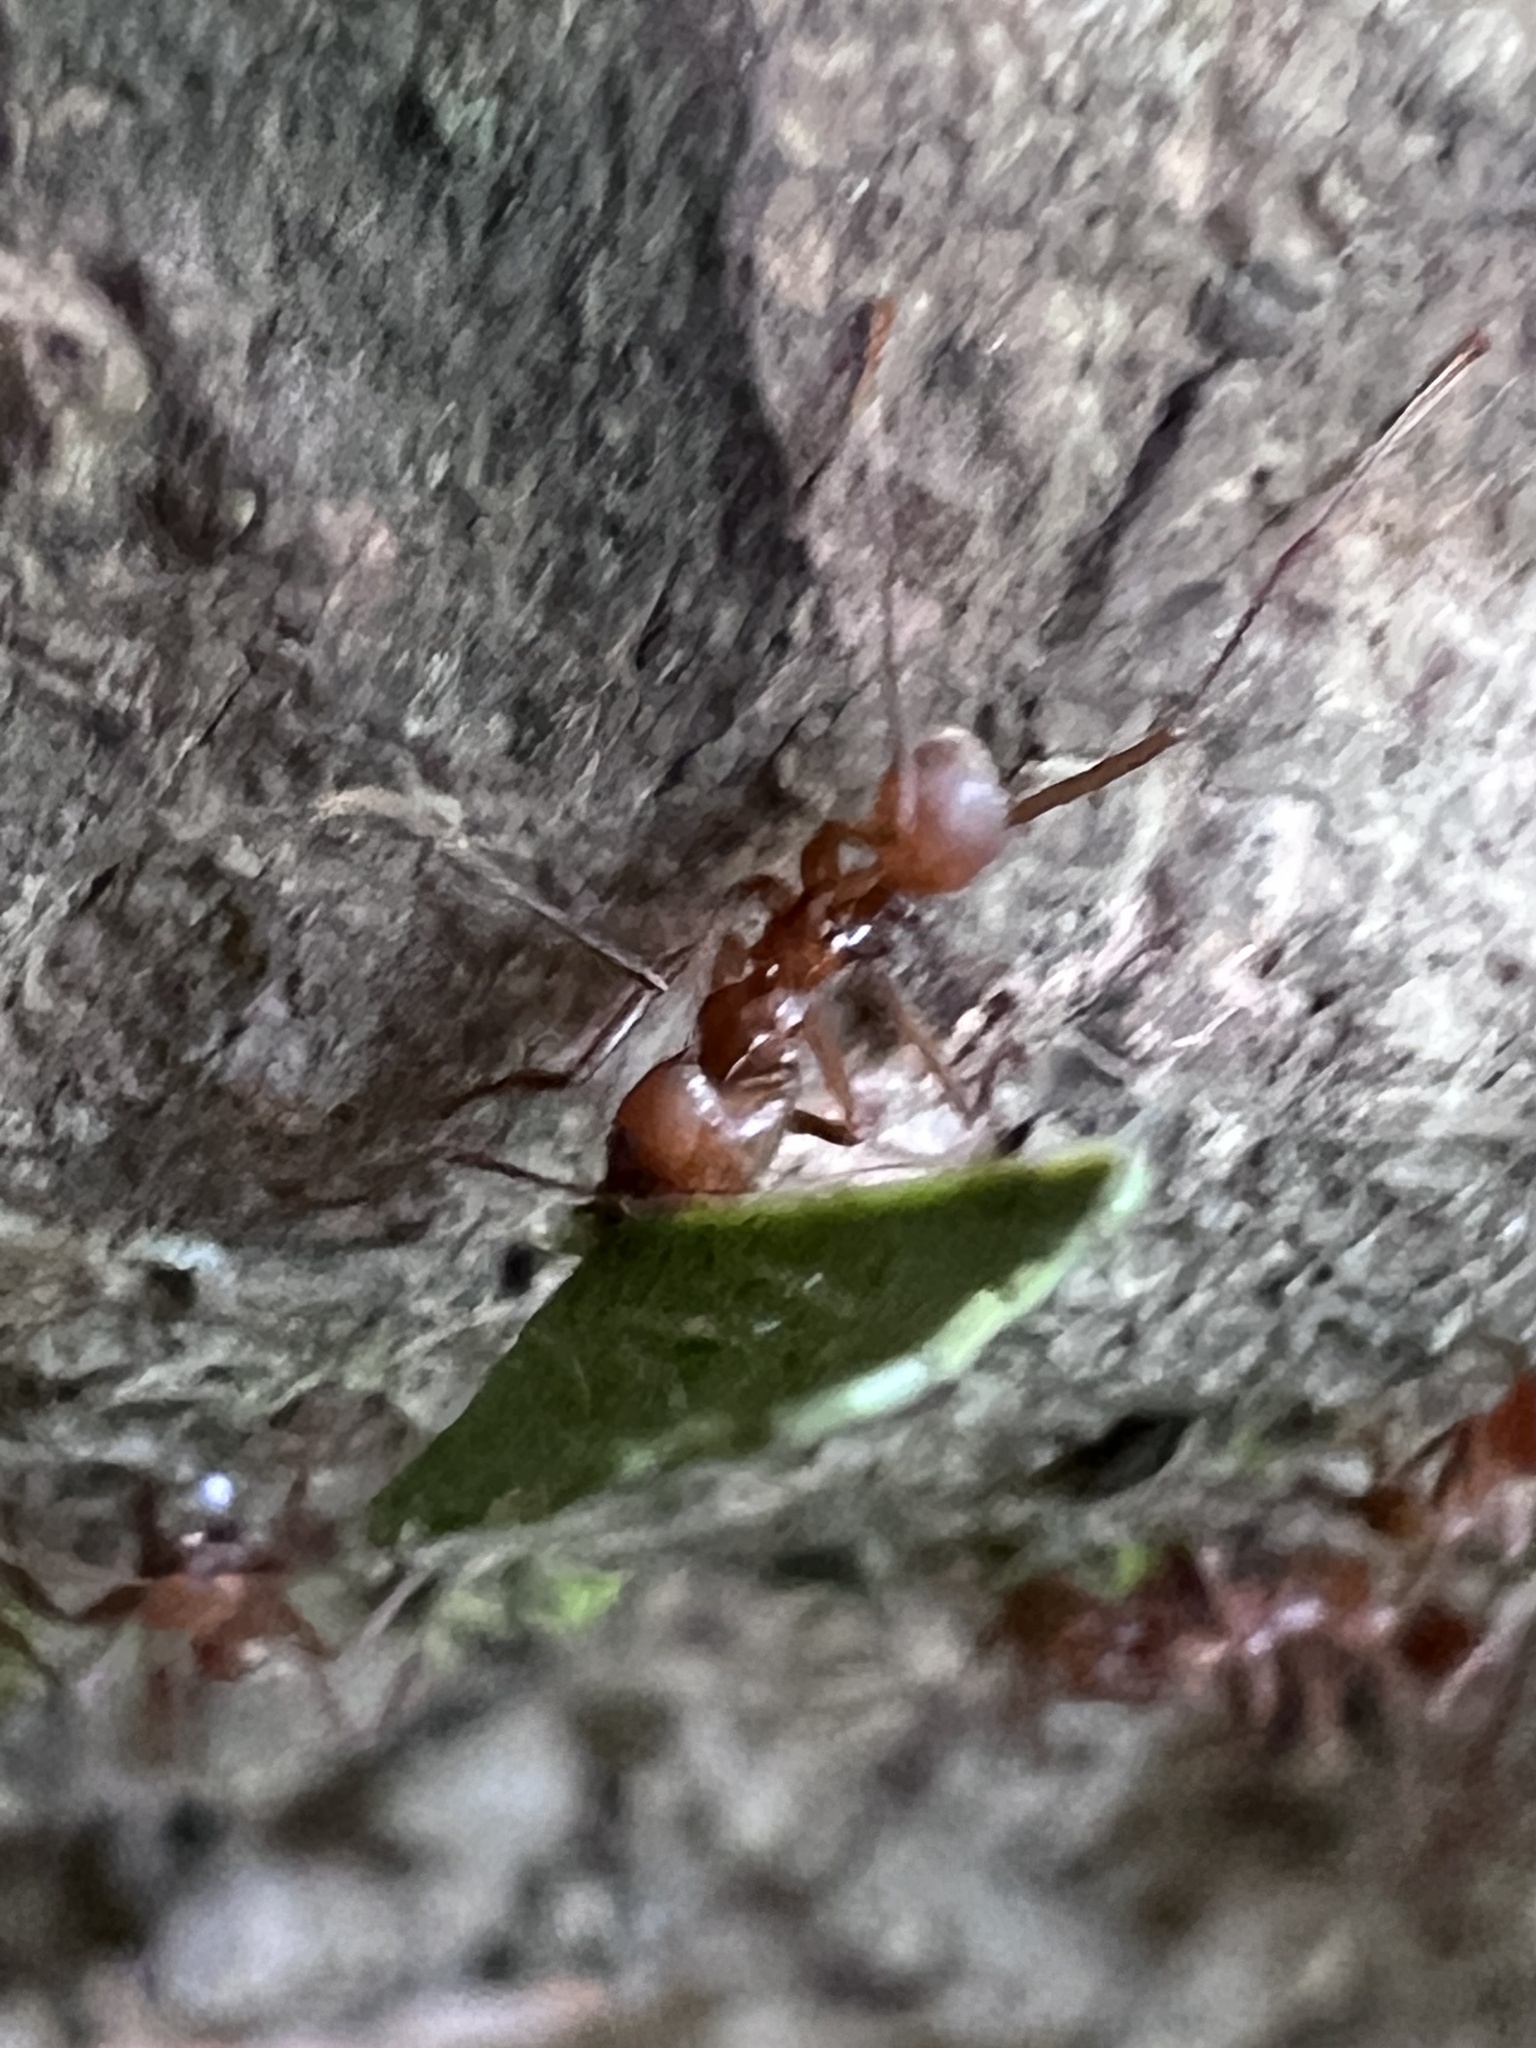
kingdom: Animalia
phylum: Arthropoda
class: Insecta
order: Hymenoptera
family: Formicidae
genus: Atta
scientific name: Atta cephalotes
